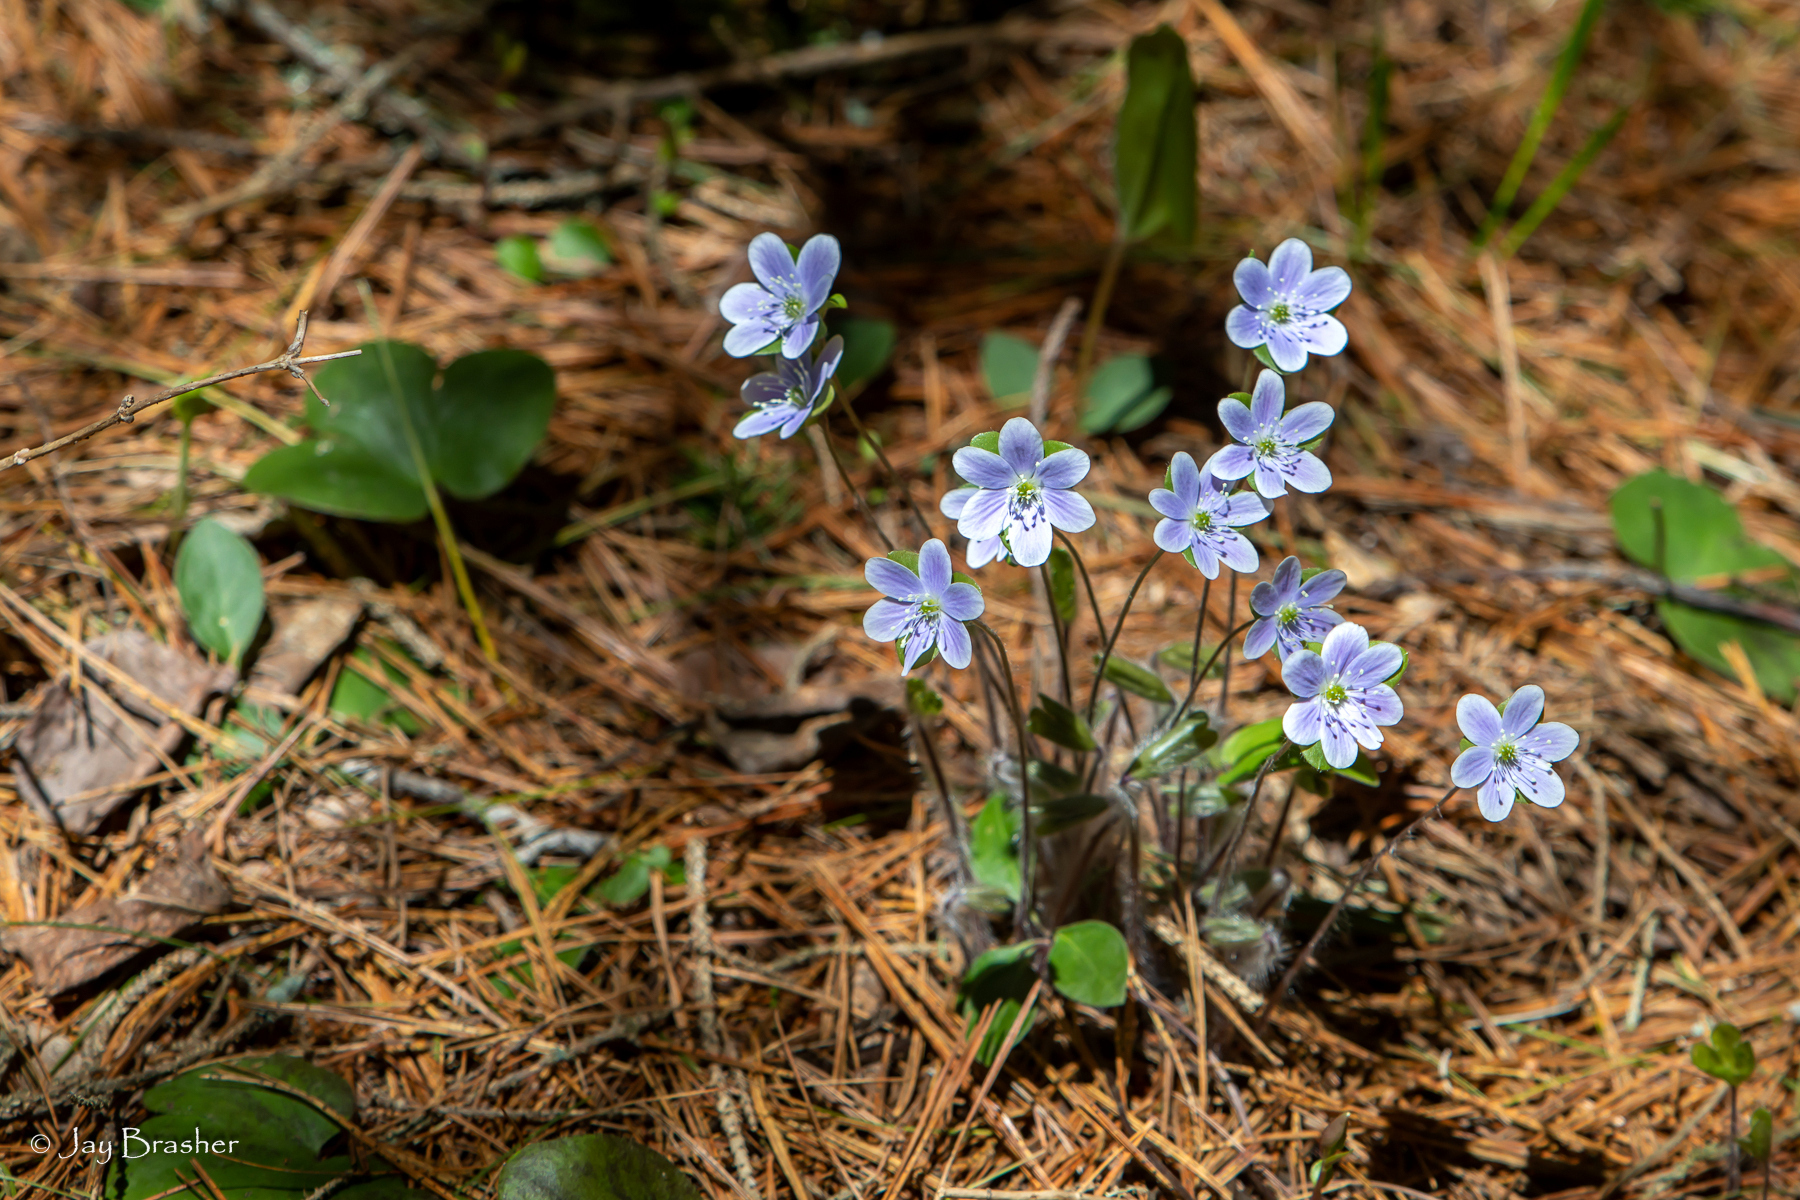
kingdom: Plantae
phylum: Tracheophyta
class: Magnoliopsida
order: Ranunculales
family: Ranunculaceae
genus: Hepatica
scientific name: Hepatica americana
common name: American hepatica
